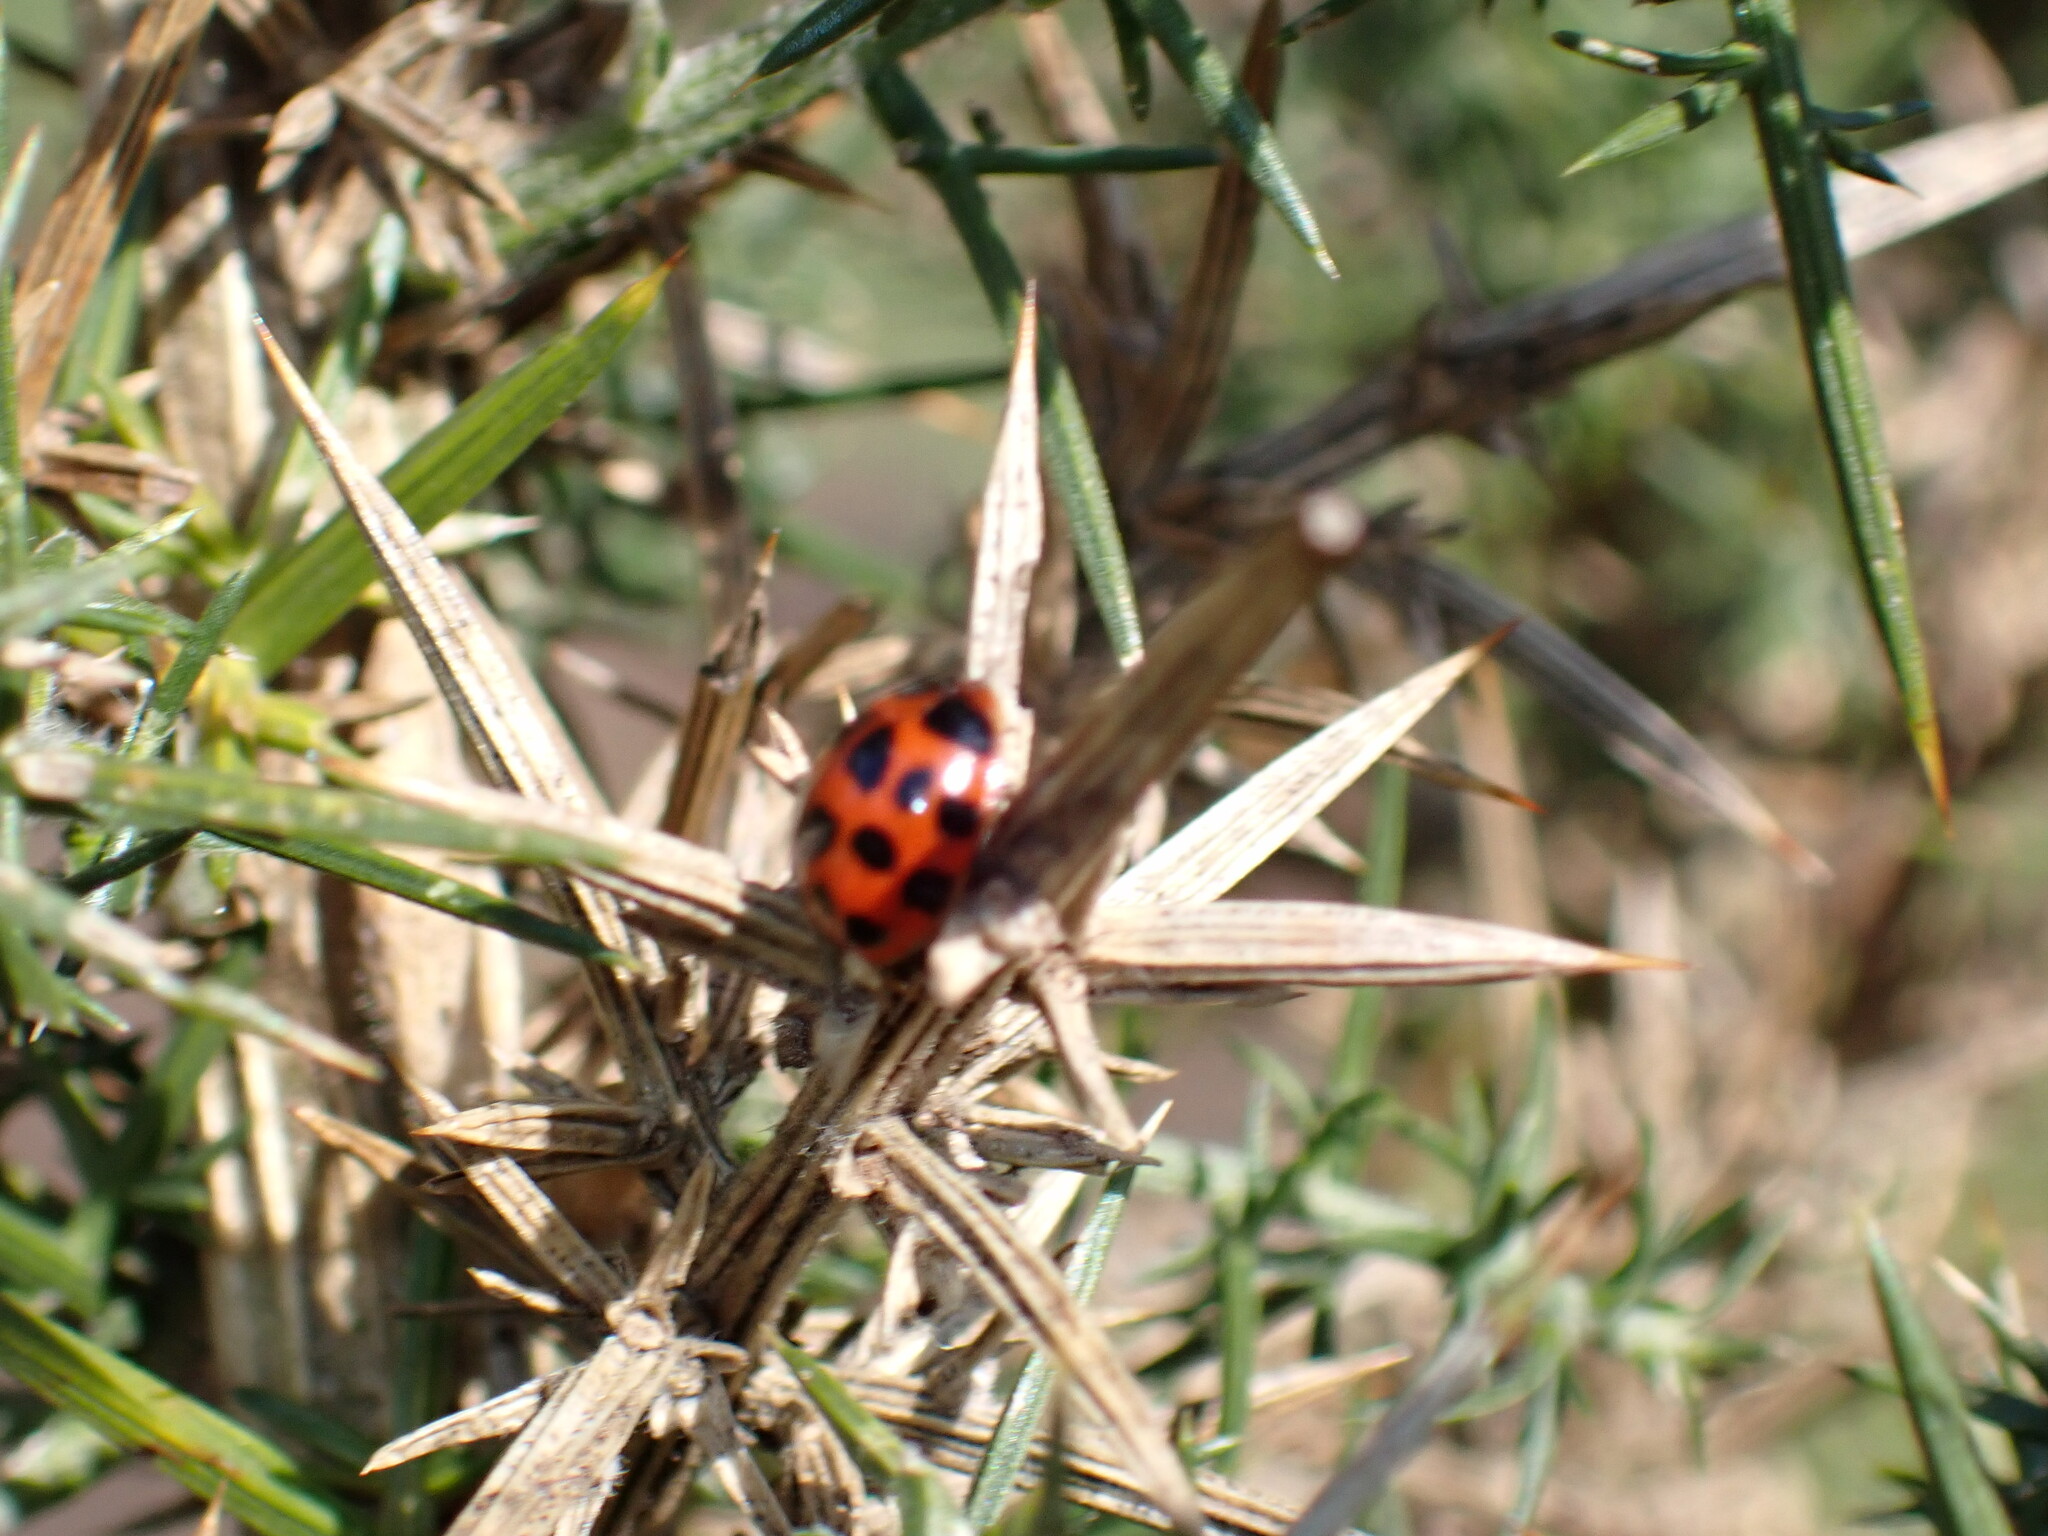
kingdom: Animalia
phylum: Arthropoda
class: Insecta
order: Coleoptera
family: Coccinellidae
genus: Harmonia
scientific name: Harmonia axyridis
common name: Harlequin ladybird
